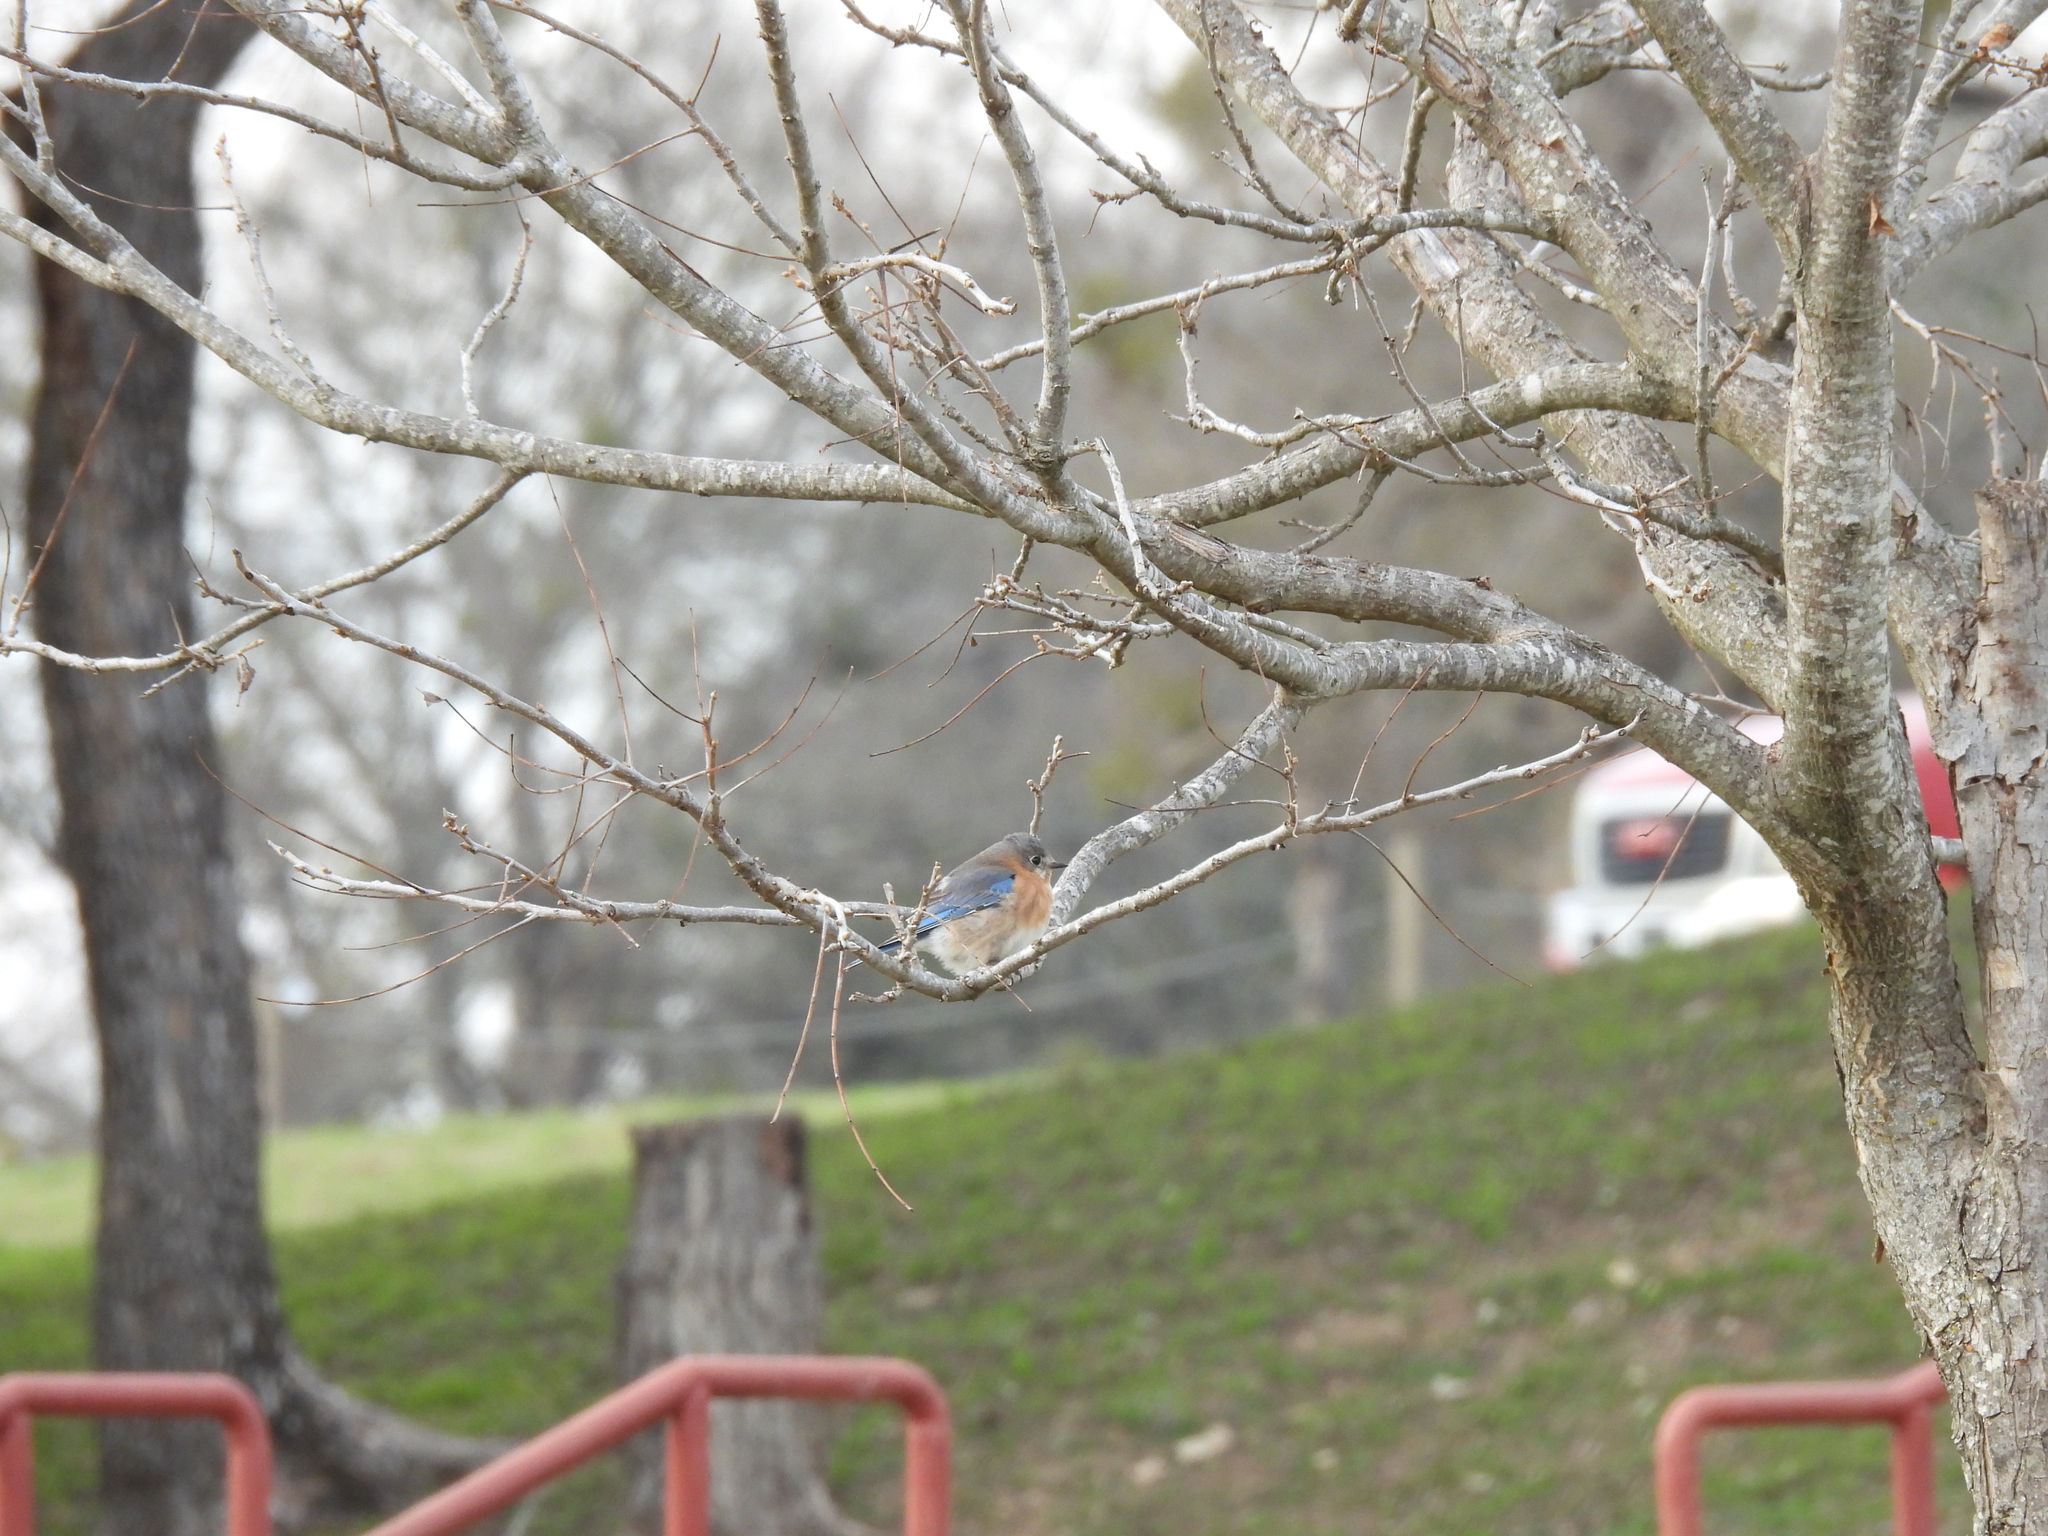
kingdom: Animalia
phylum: Chordata
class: Aves
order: Passeriformes
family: Turdidae
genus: Sialia
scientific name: Sialia sialis
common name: Eastern bluebird
